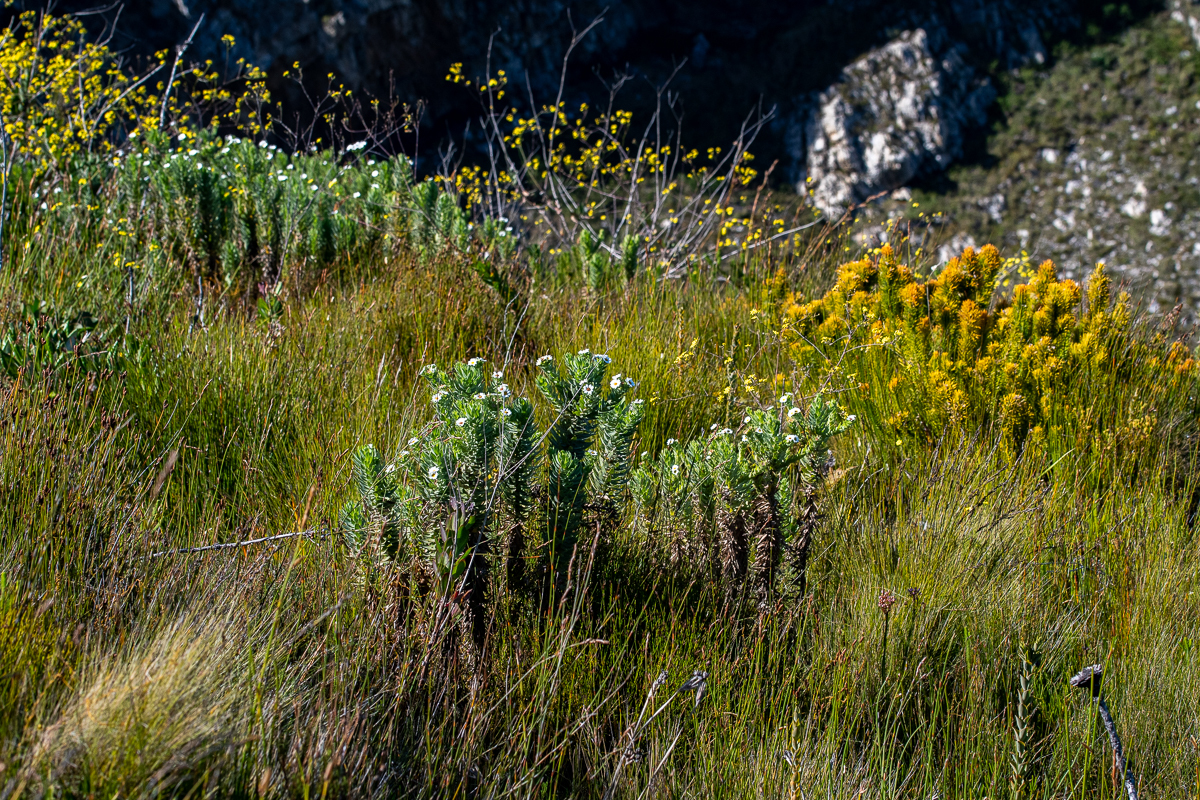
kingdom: Plantae
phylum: Tracheophyta
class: Magnoliopsida
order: Asterales
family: Asteraceae
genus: Osmitopsis
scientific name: Osmitopsis asteriscoides
